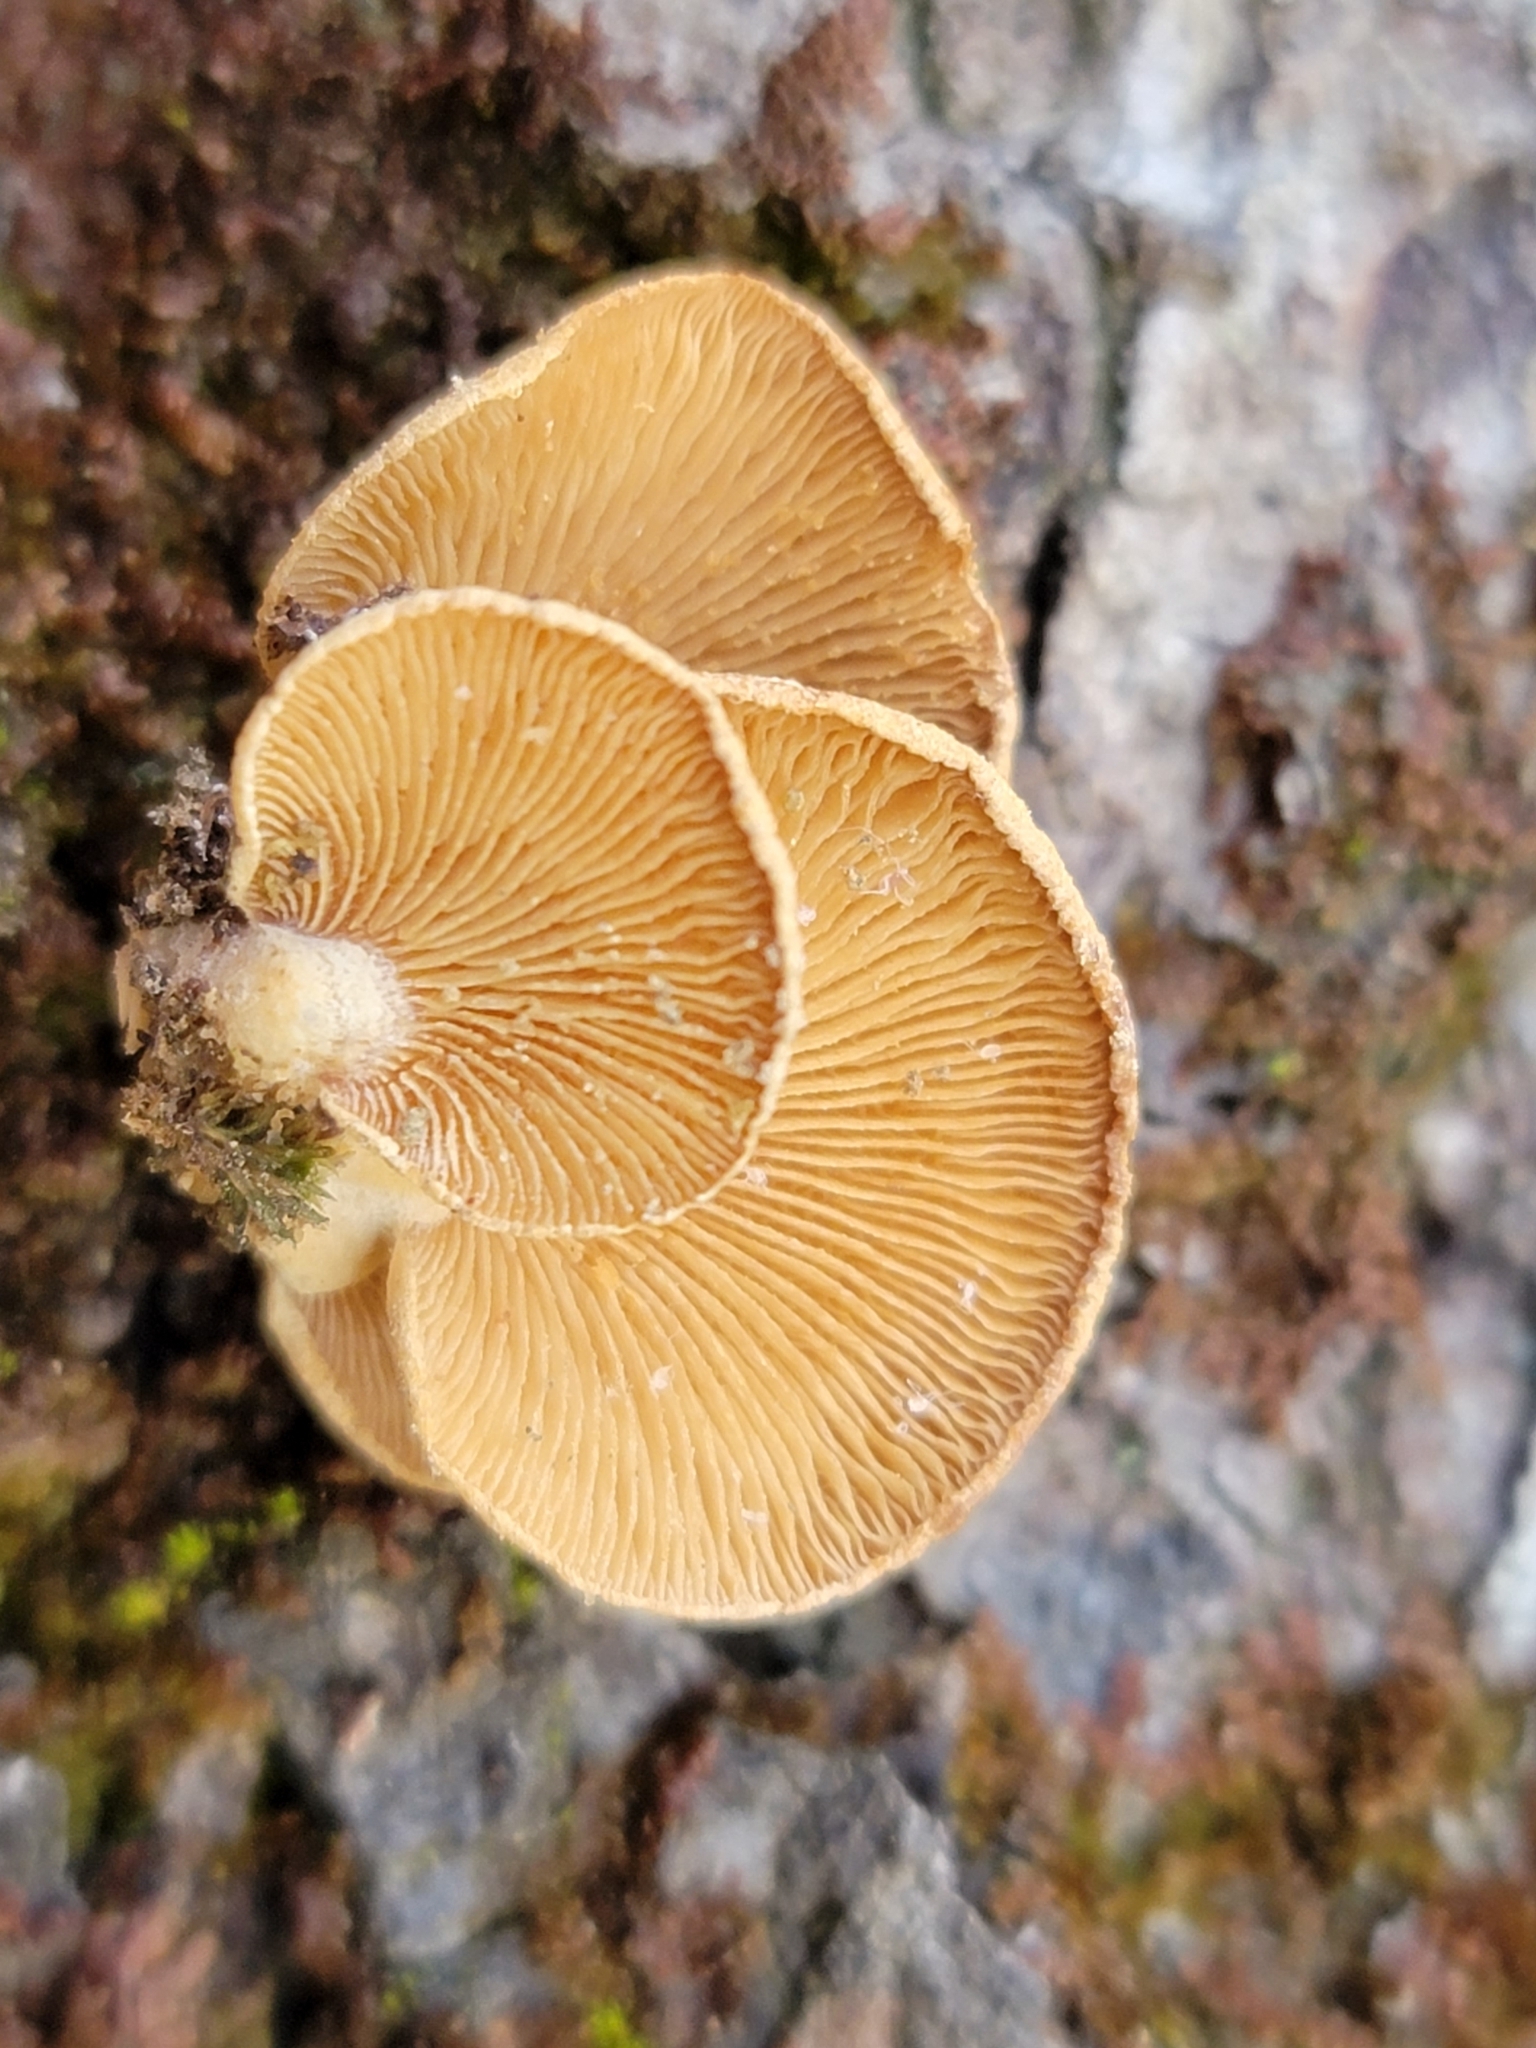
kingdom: Fungi
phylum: Basidiomycota
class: Agaricomycetes
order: Agaricales
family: Mycenaceae
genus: Panellus
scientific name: Panellus stipticus
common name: Bitter oysterling
